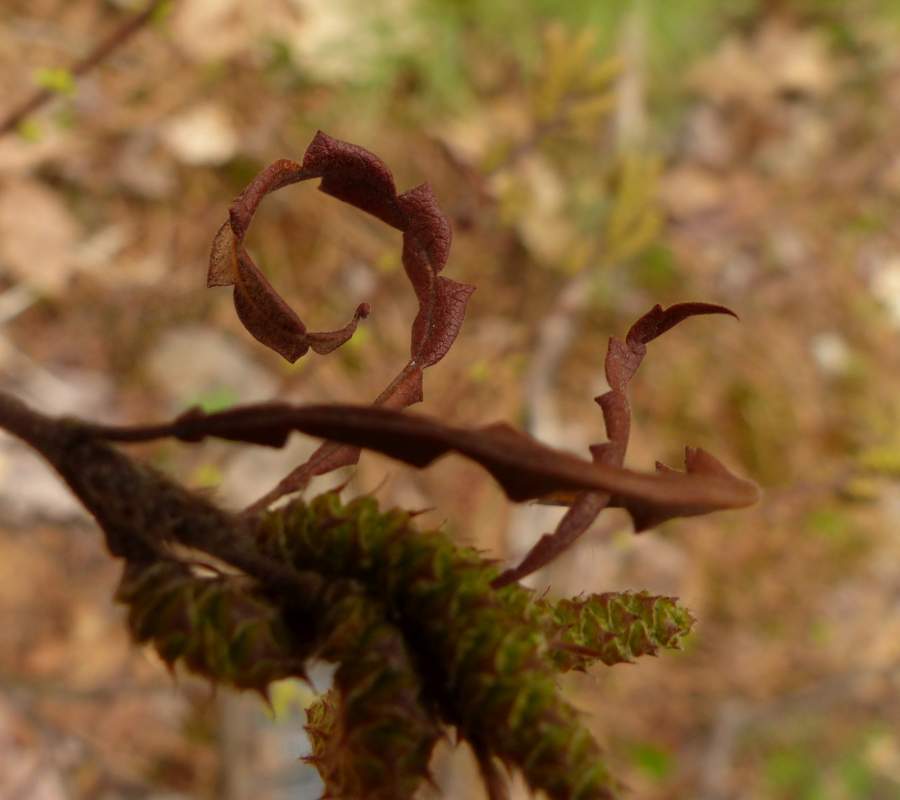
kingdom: Plantae
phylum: Tracheophyta
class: Magnoliopsida
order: Fagales
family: Myricaceae
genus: Comptonia
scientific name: Comptonia peregrina
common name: Sweet-fern
